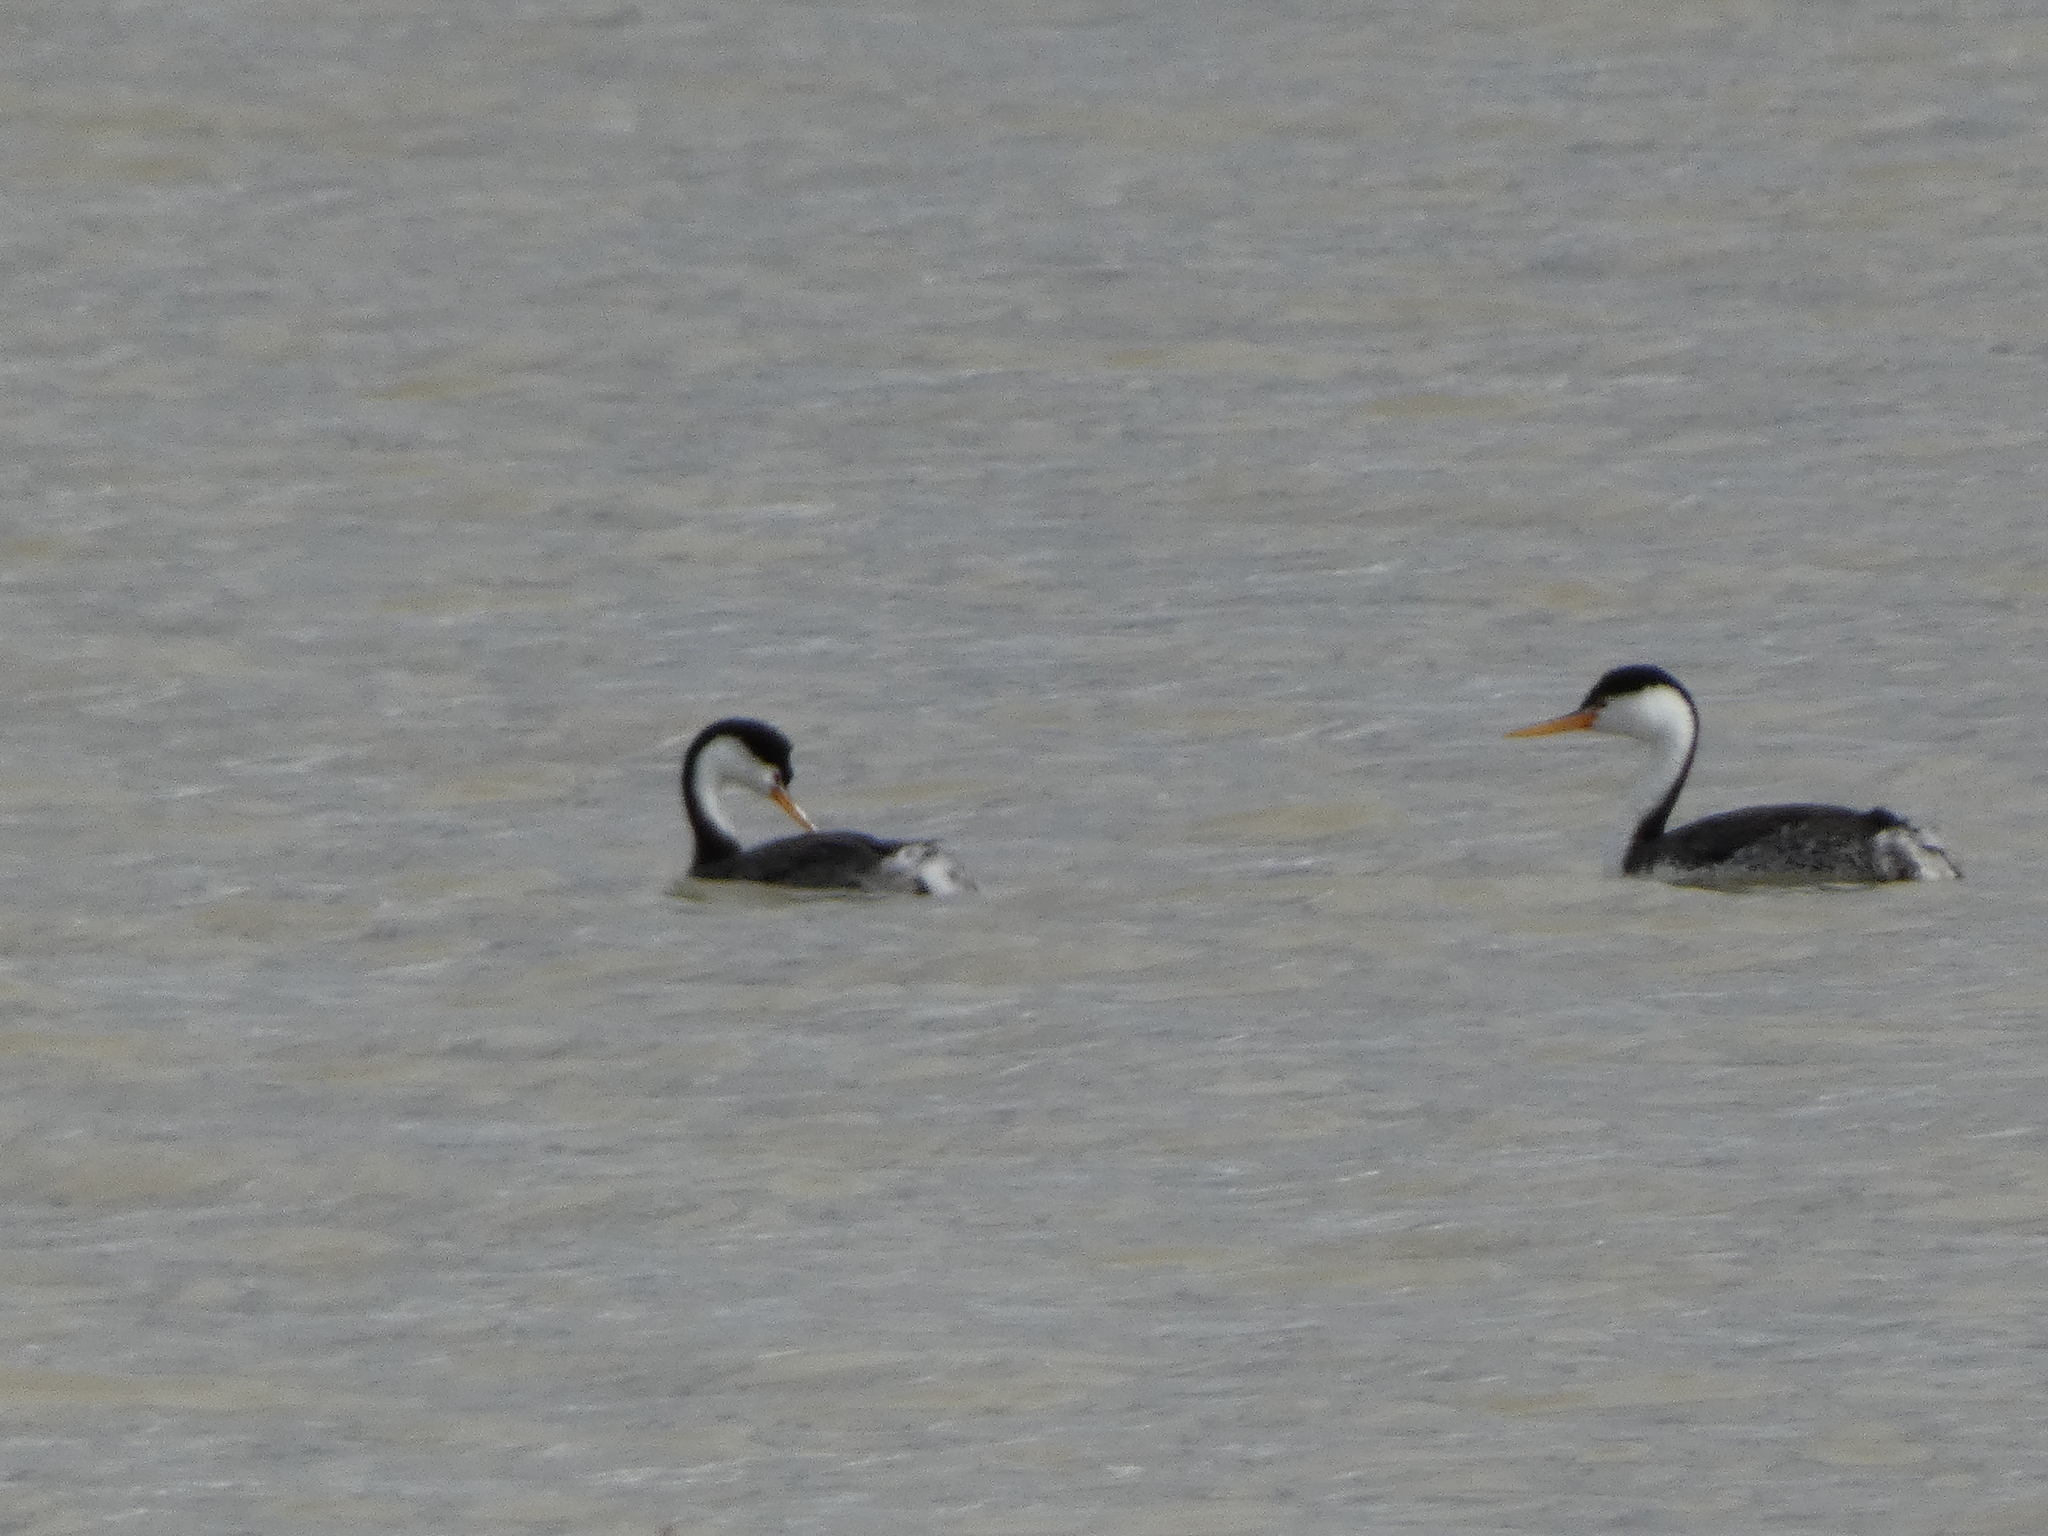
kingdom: Animalia
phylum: Chordata
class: Aves
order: Podicipediformes
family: Podicipedidae
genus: Aechmophorus
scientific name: Aechmophorus clarkii
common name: Clark's grebe
